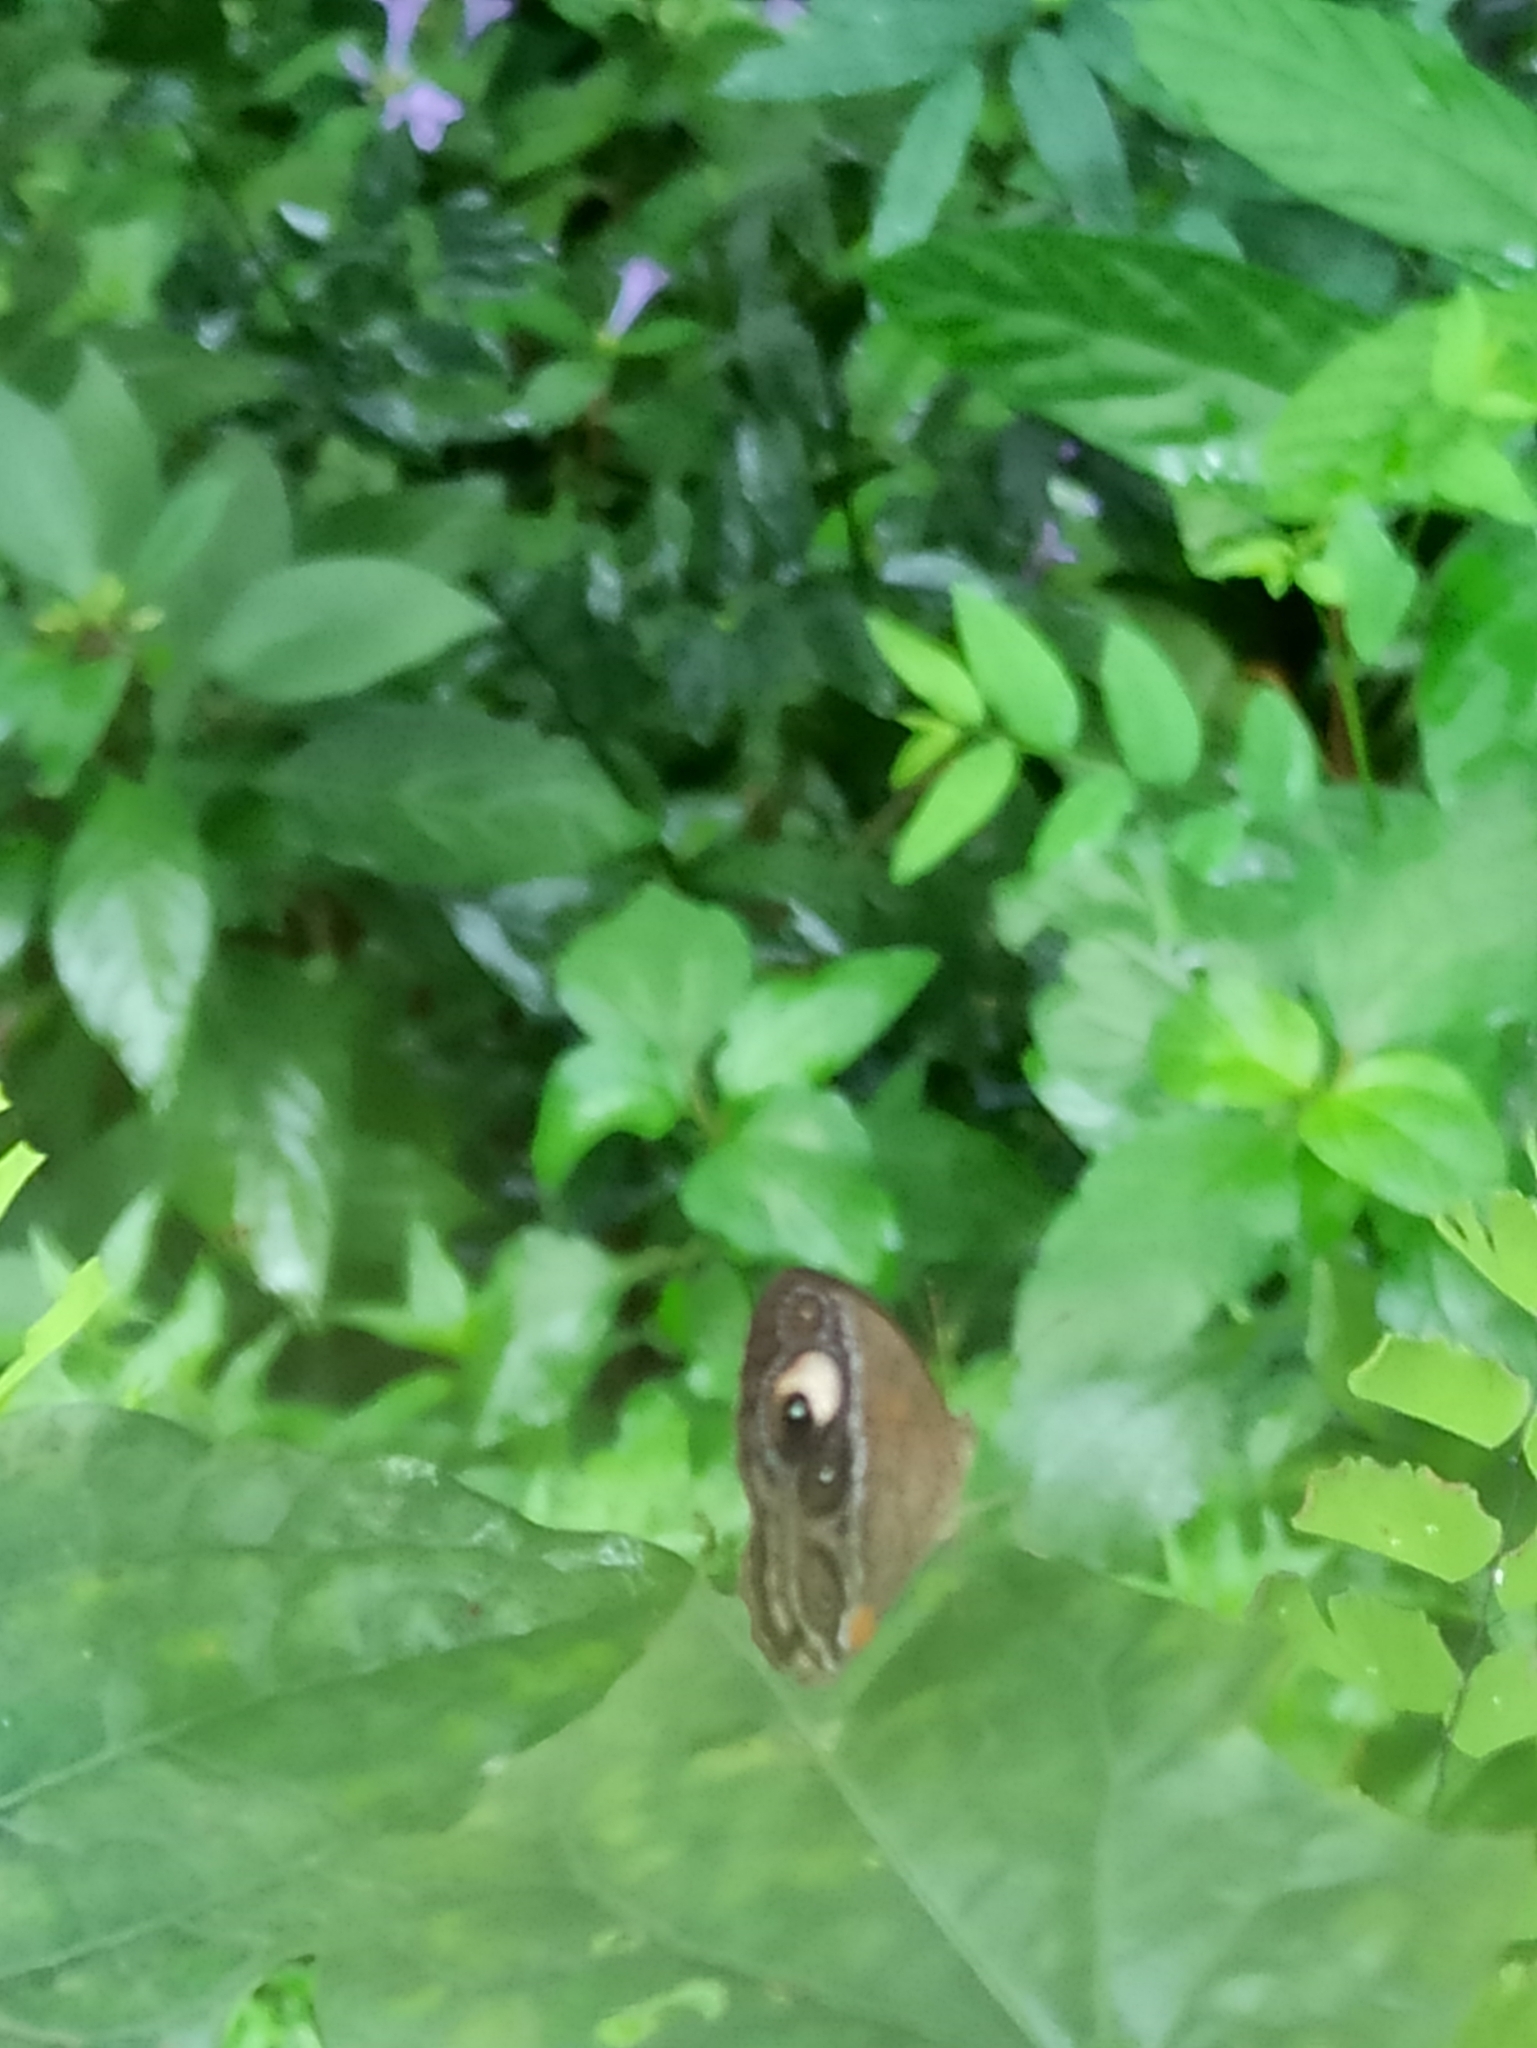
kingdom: Animalia
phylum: Arthropoda
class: Insecta
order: Lepidoptera
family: Nymphalidae
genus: Mycalesis
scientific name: Mycalesis patnia
